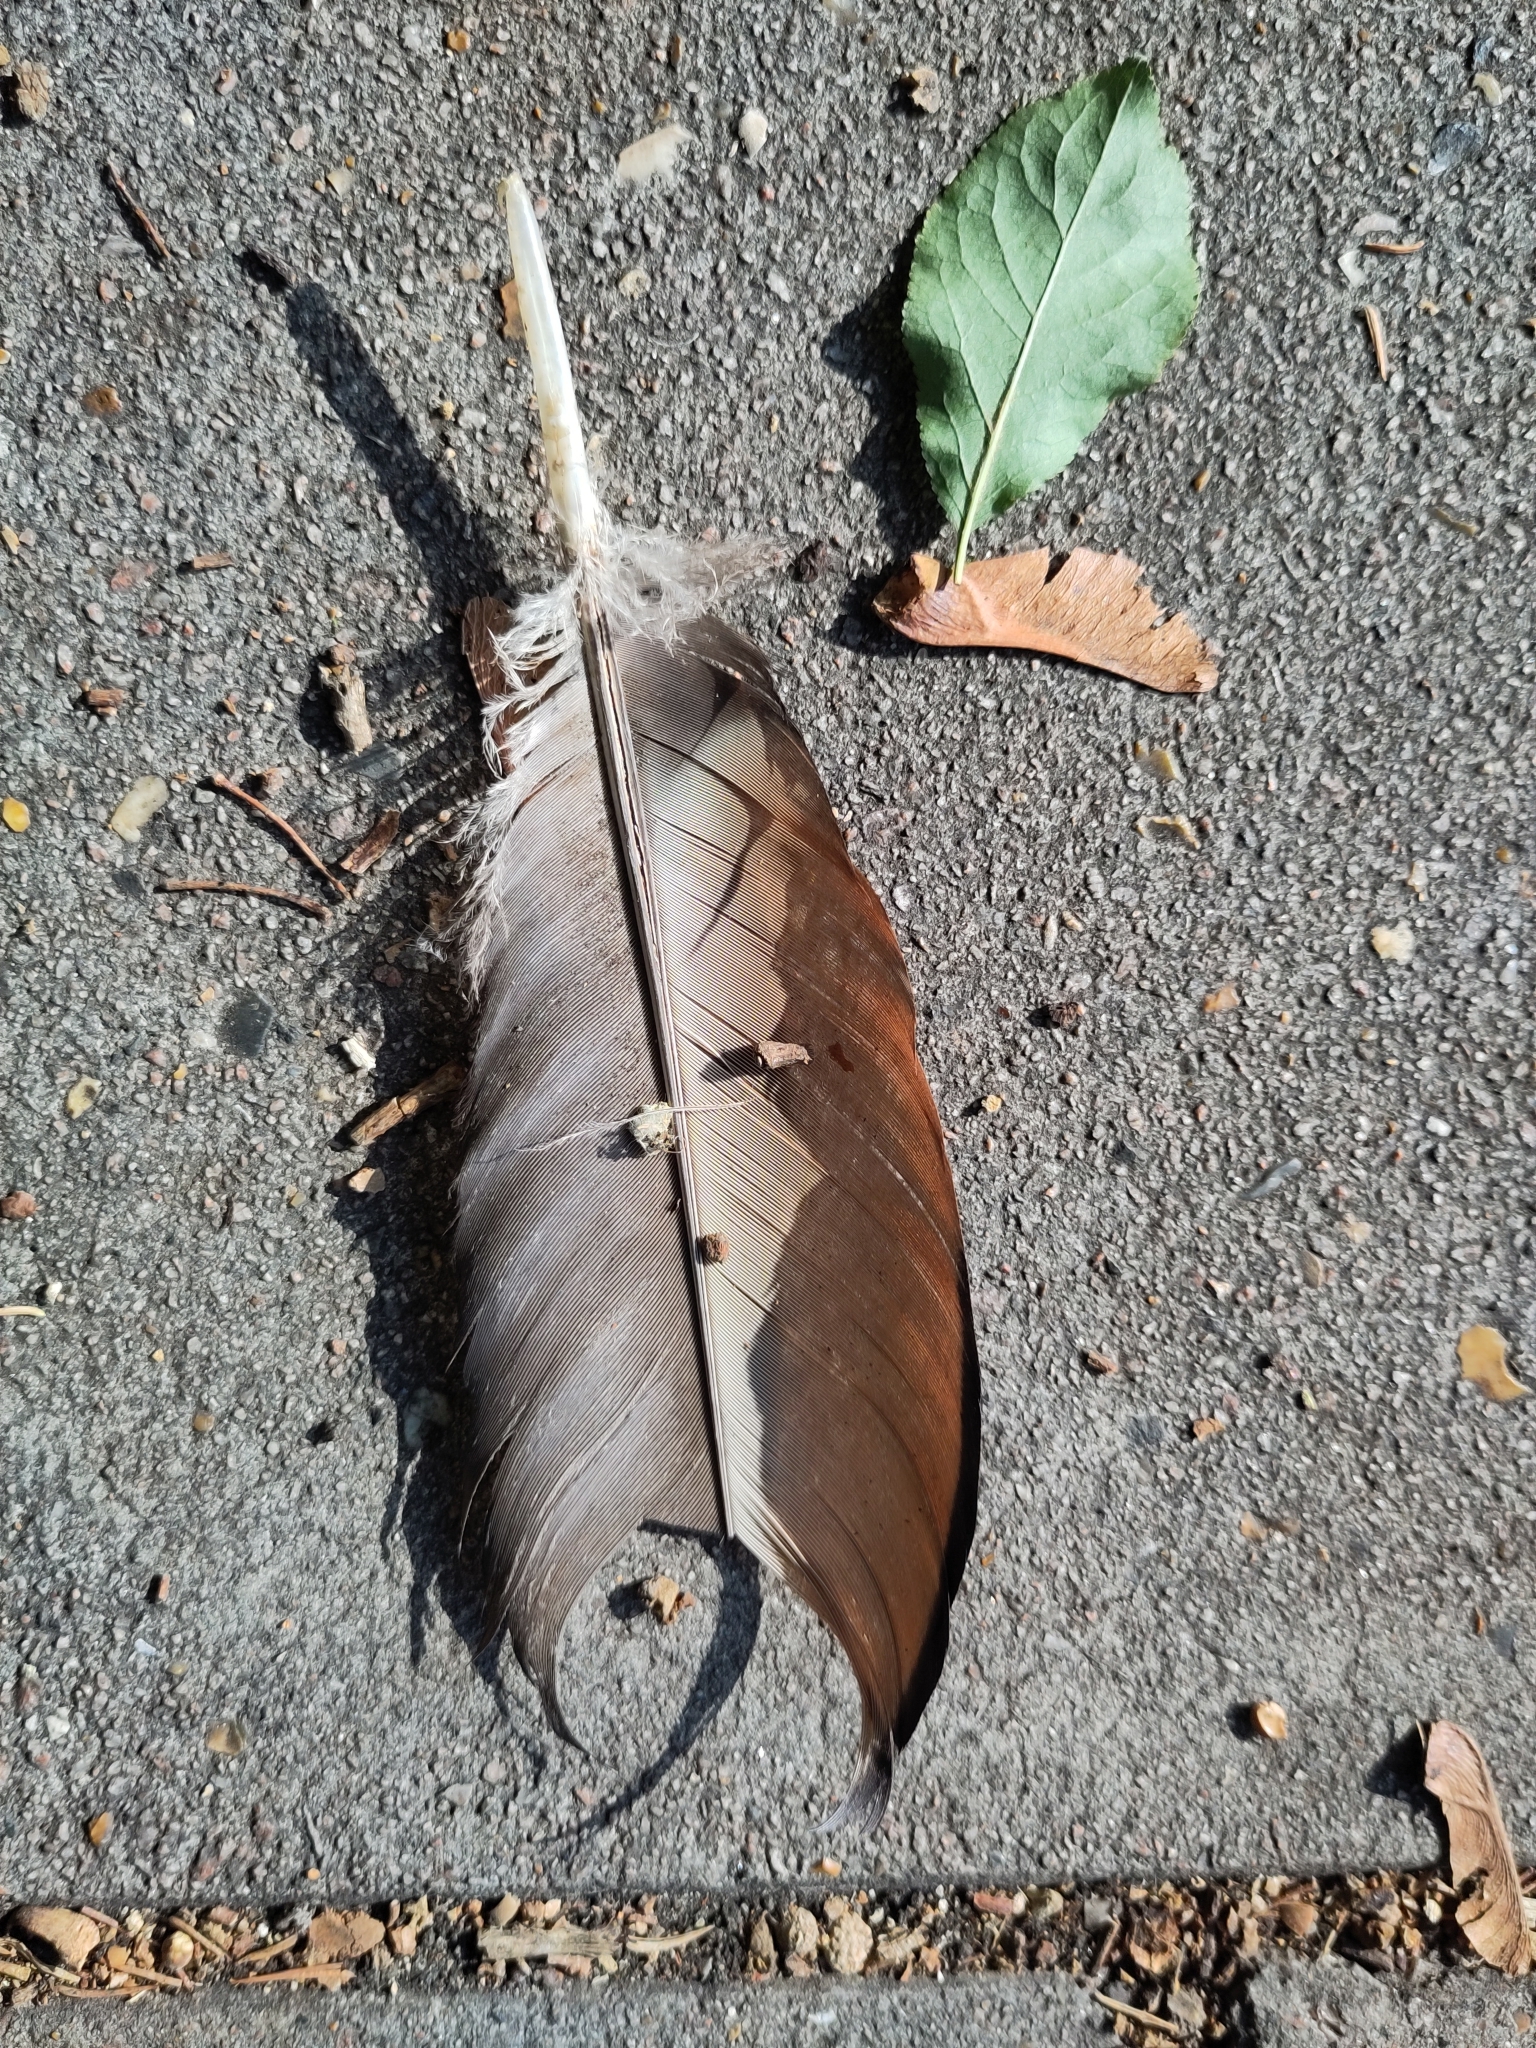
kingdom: Animalia
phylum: Chordata
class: Aves
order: Anseriformes
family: Anatidae
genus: Alopochen
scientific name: Alopochen aegyptiaca
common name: Egyptian goose
